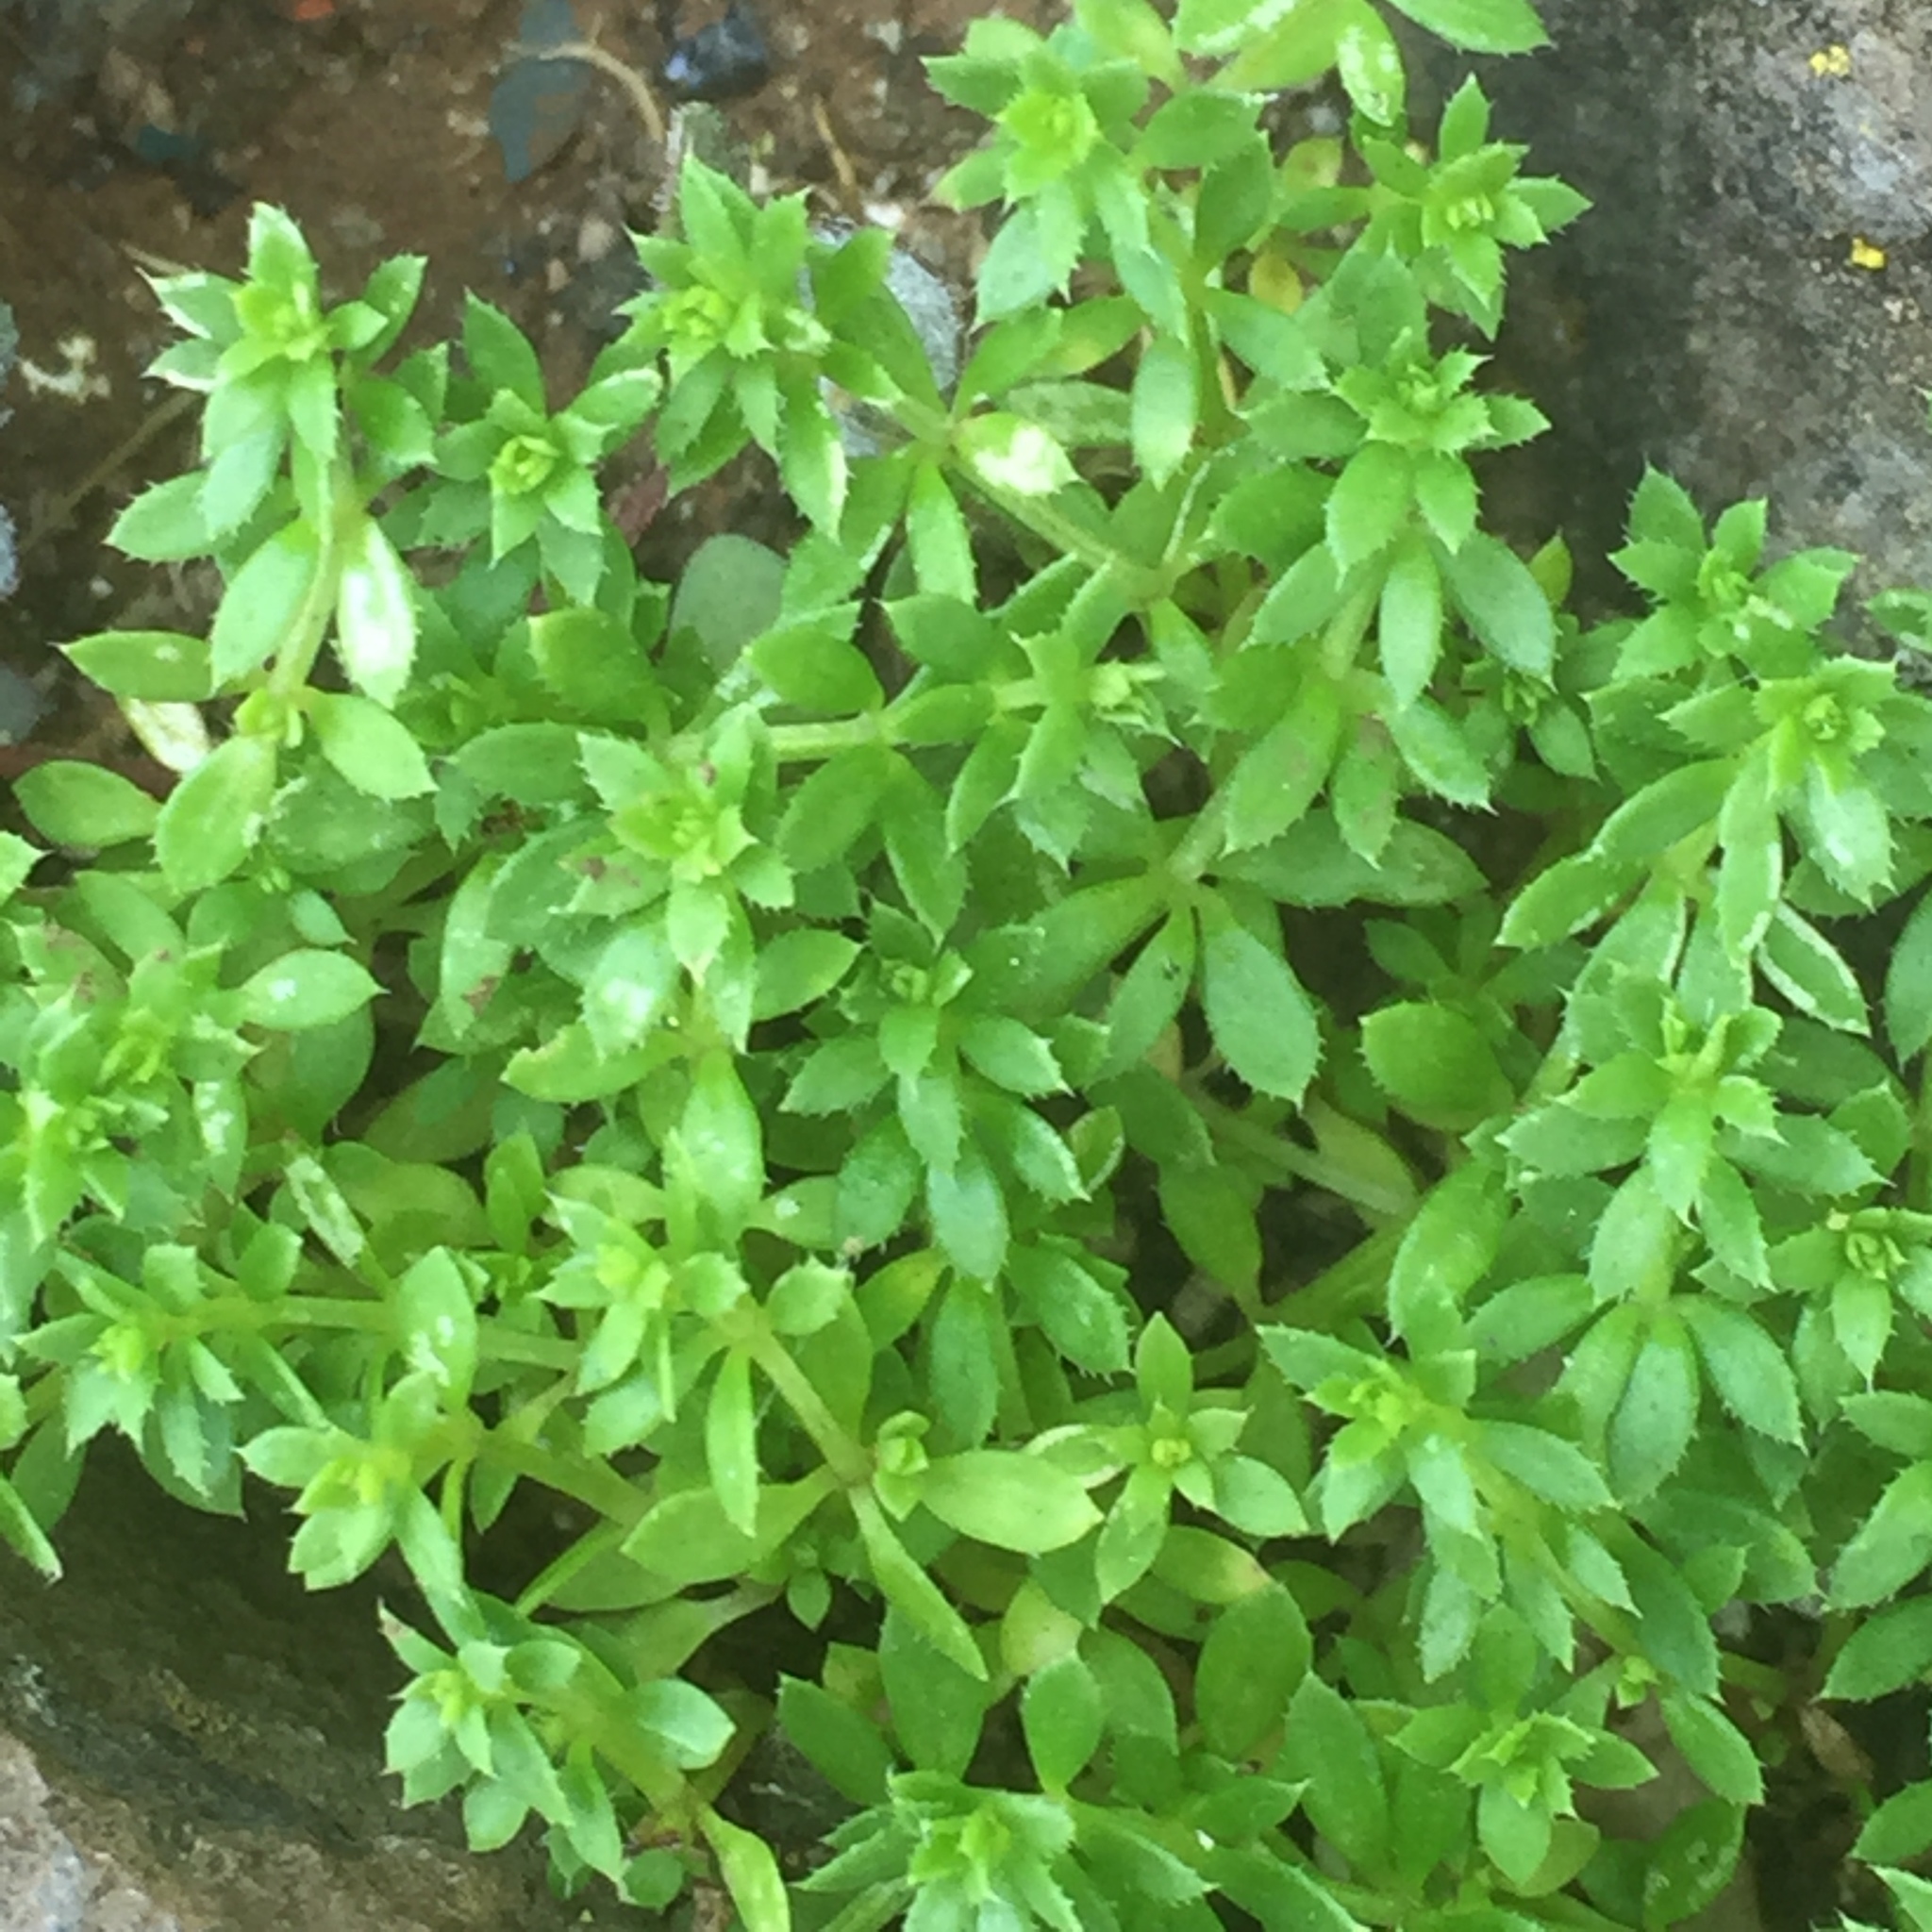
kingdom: Plantae
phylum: Tracheophyta
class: Magnoliopsida
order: Gentianales
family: Rubiaceae
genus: Sherardia
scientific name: Sherardia arvensis
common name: Field madder
